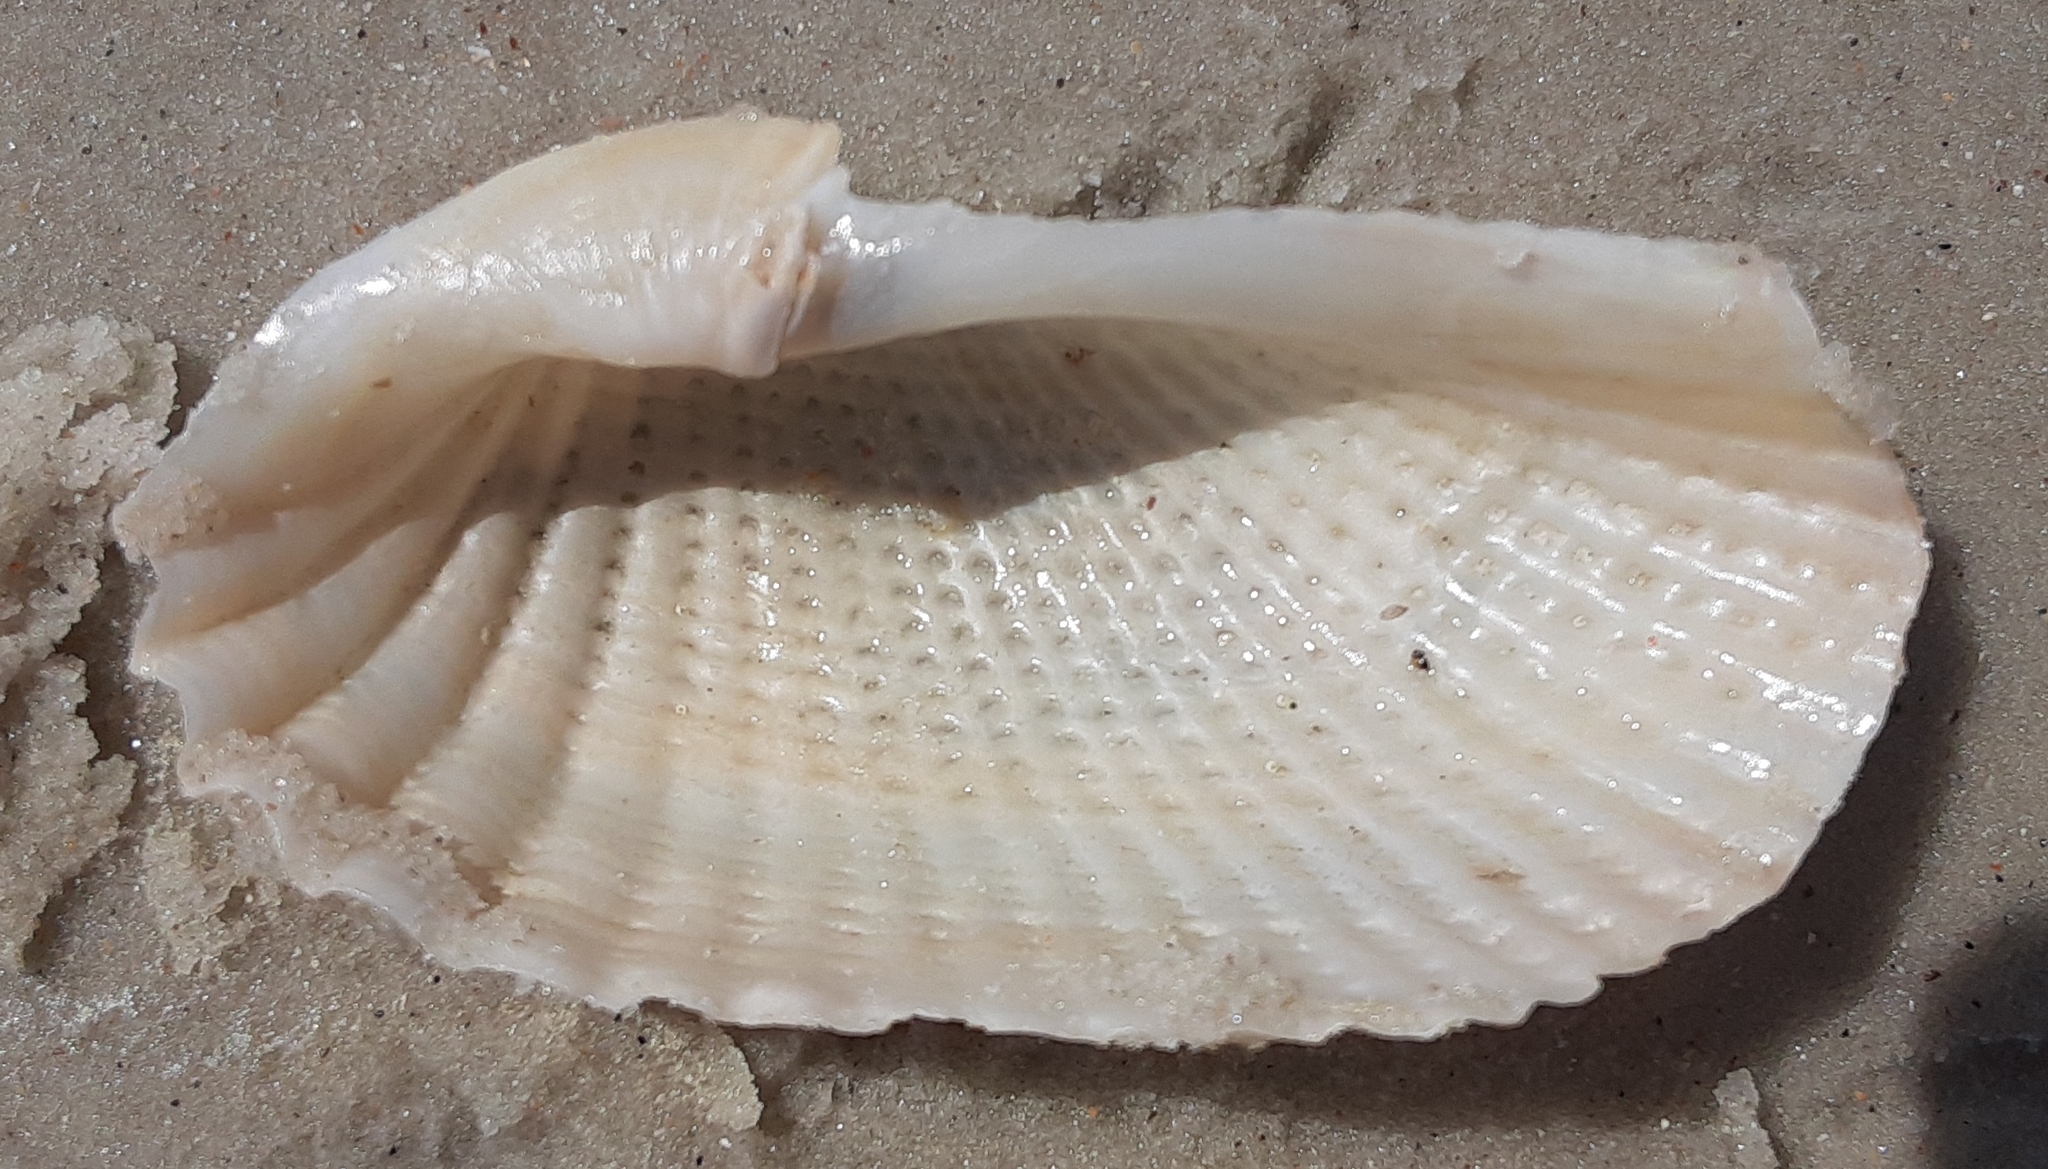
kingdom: Animalia
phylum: Mollusca
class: Bivalvia
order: Myida
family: Pholadidae
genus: Cyrtopleura
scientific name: Cyrtopleura costata
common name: Angel wing
